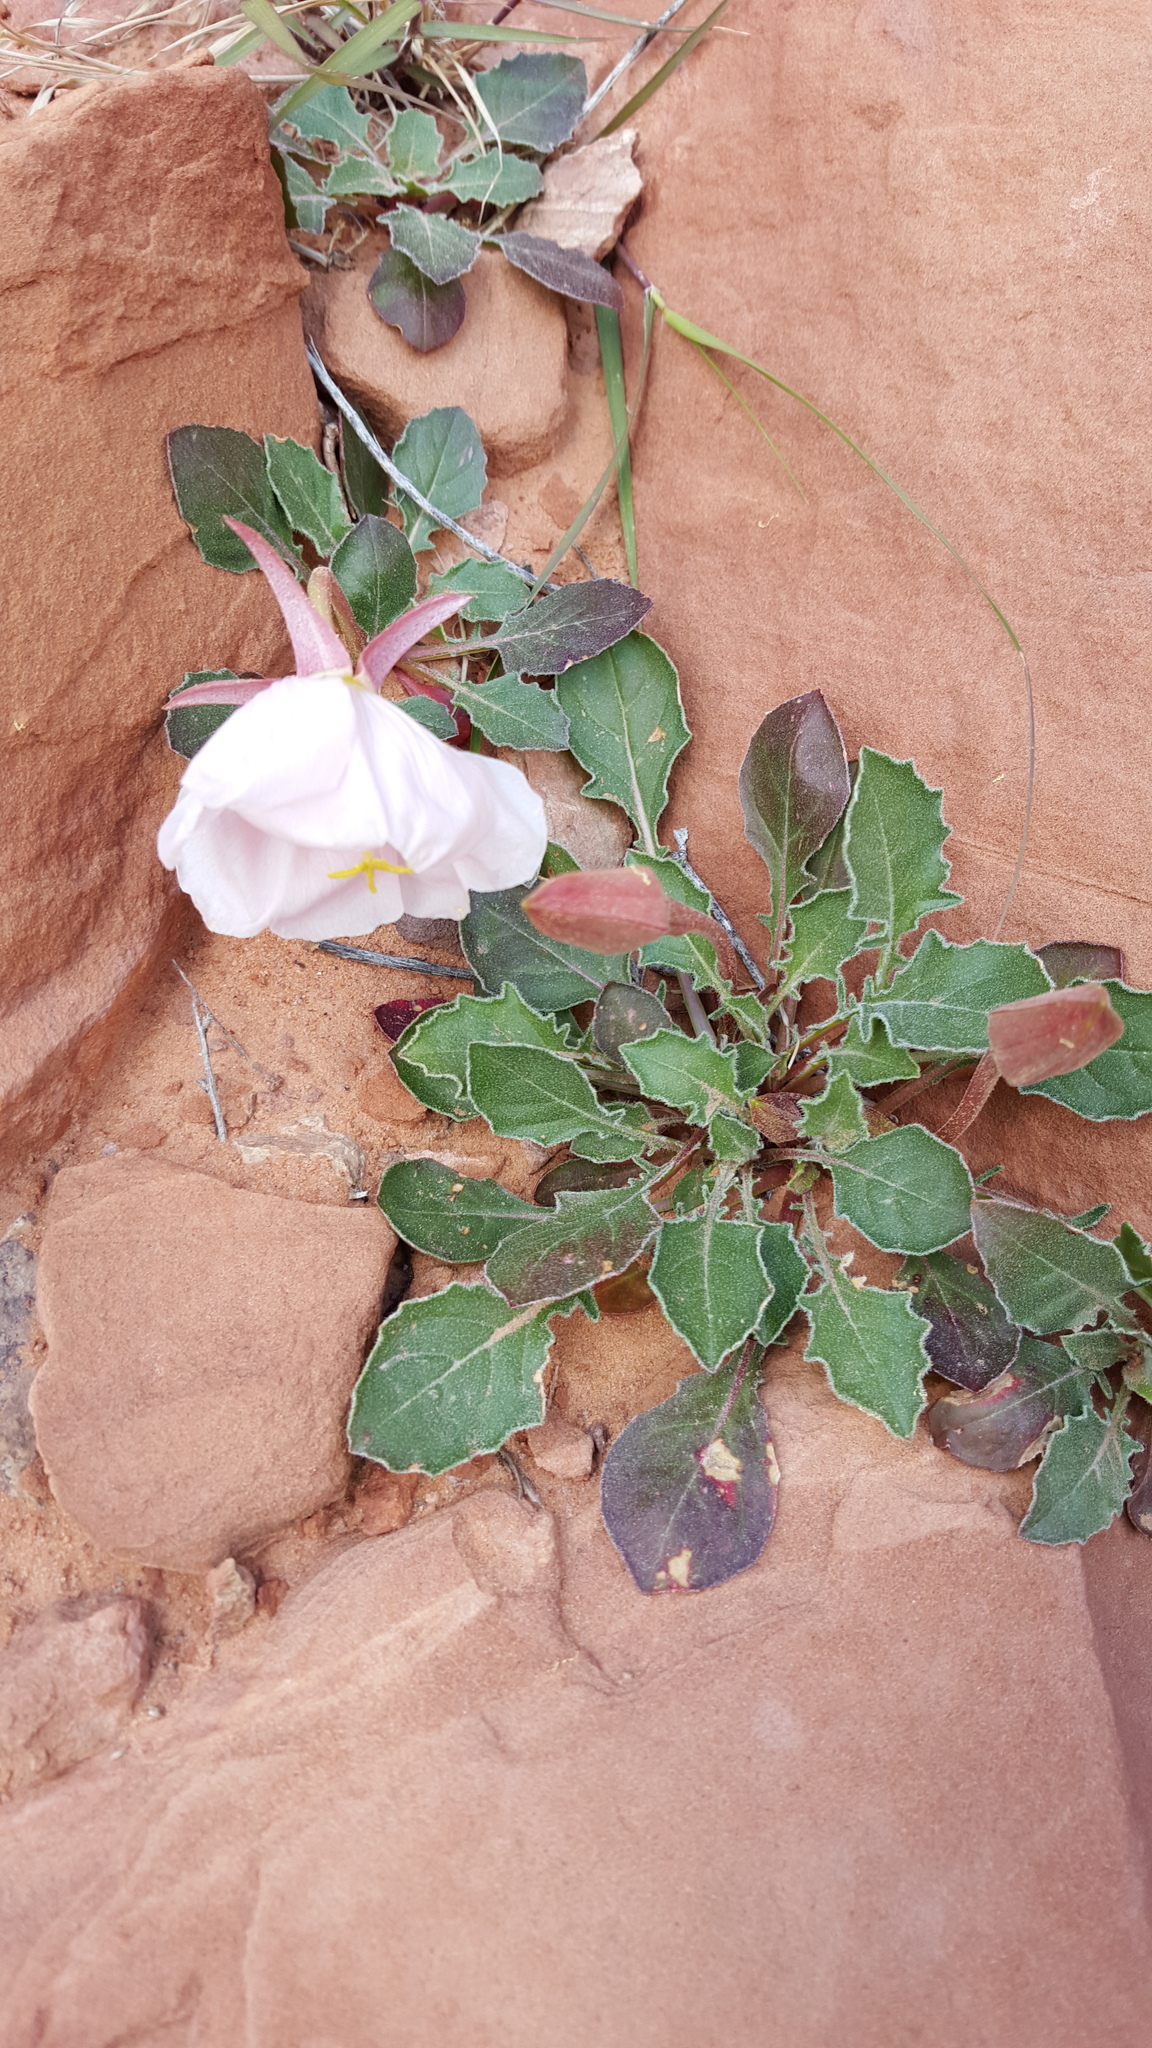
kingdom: Plantae
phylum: Tracheophyta
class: Magnoliopsida
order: Myrtales
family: Onagraceae
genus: Oenothera
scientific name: Oenothera cespitosa
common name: Tufted evening-primrose
